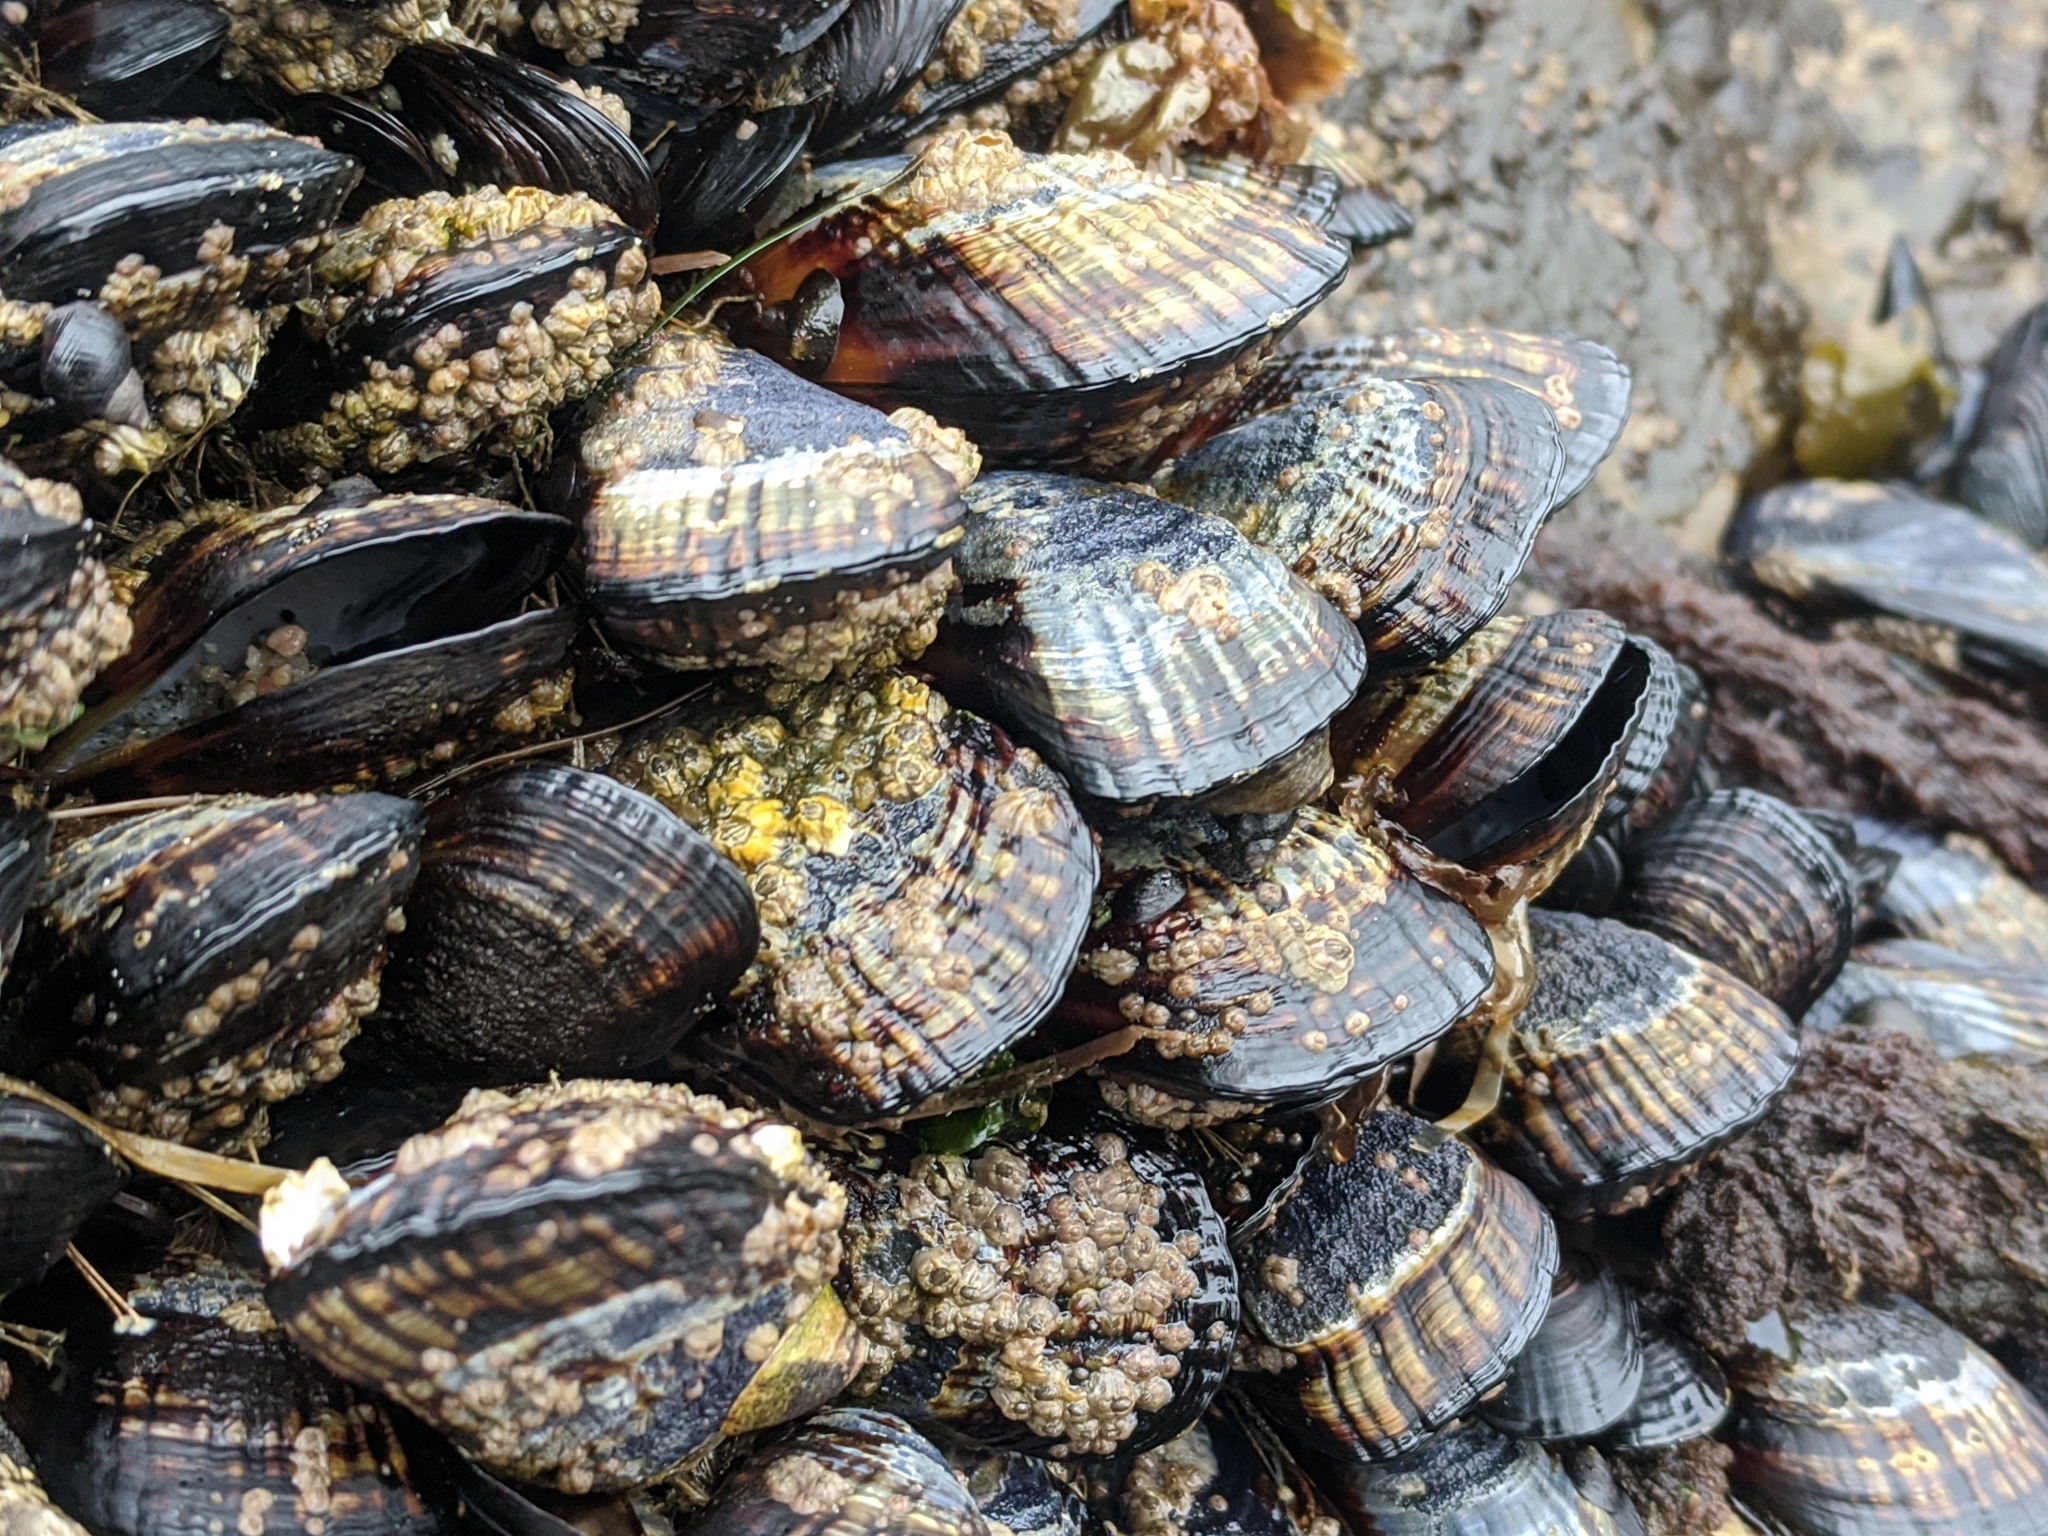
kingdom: Animalia
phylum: Mollusca
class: Bivalvia
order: Mytilida
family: Mytilidae
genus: Mytilus
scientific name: Mytilus californianus
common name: California mussel
